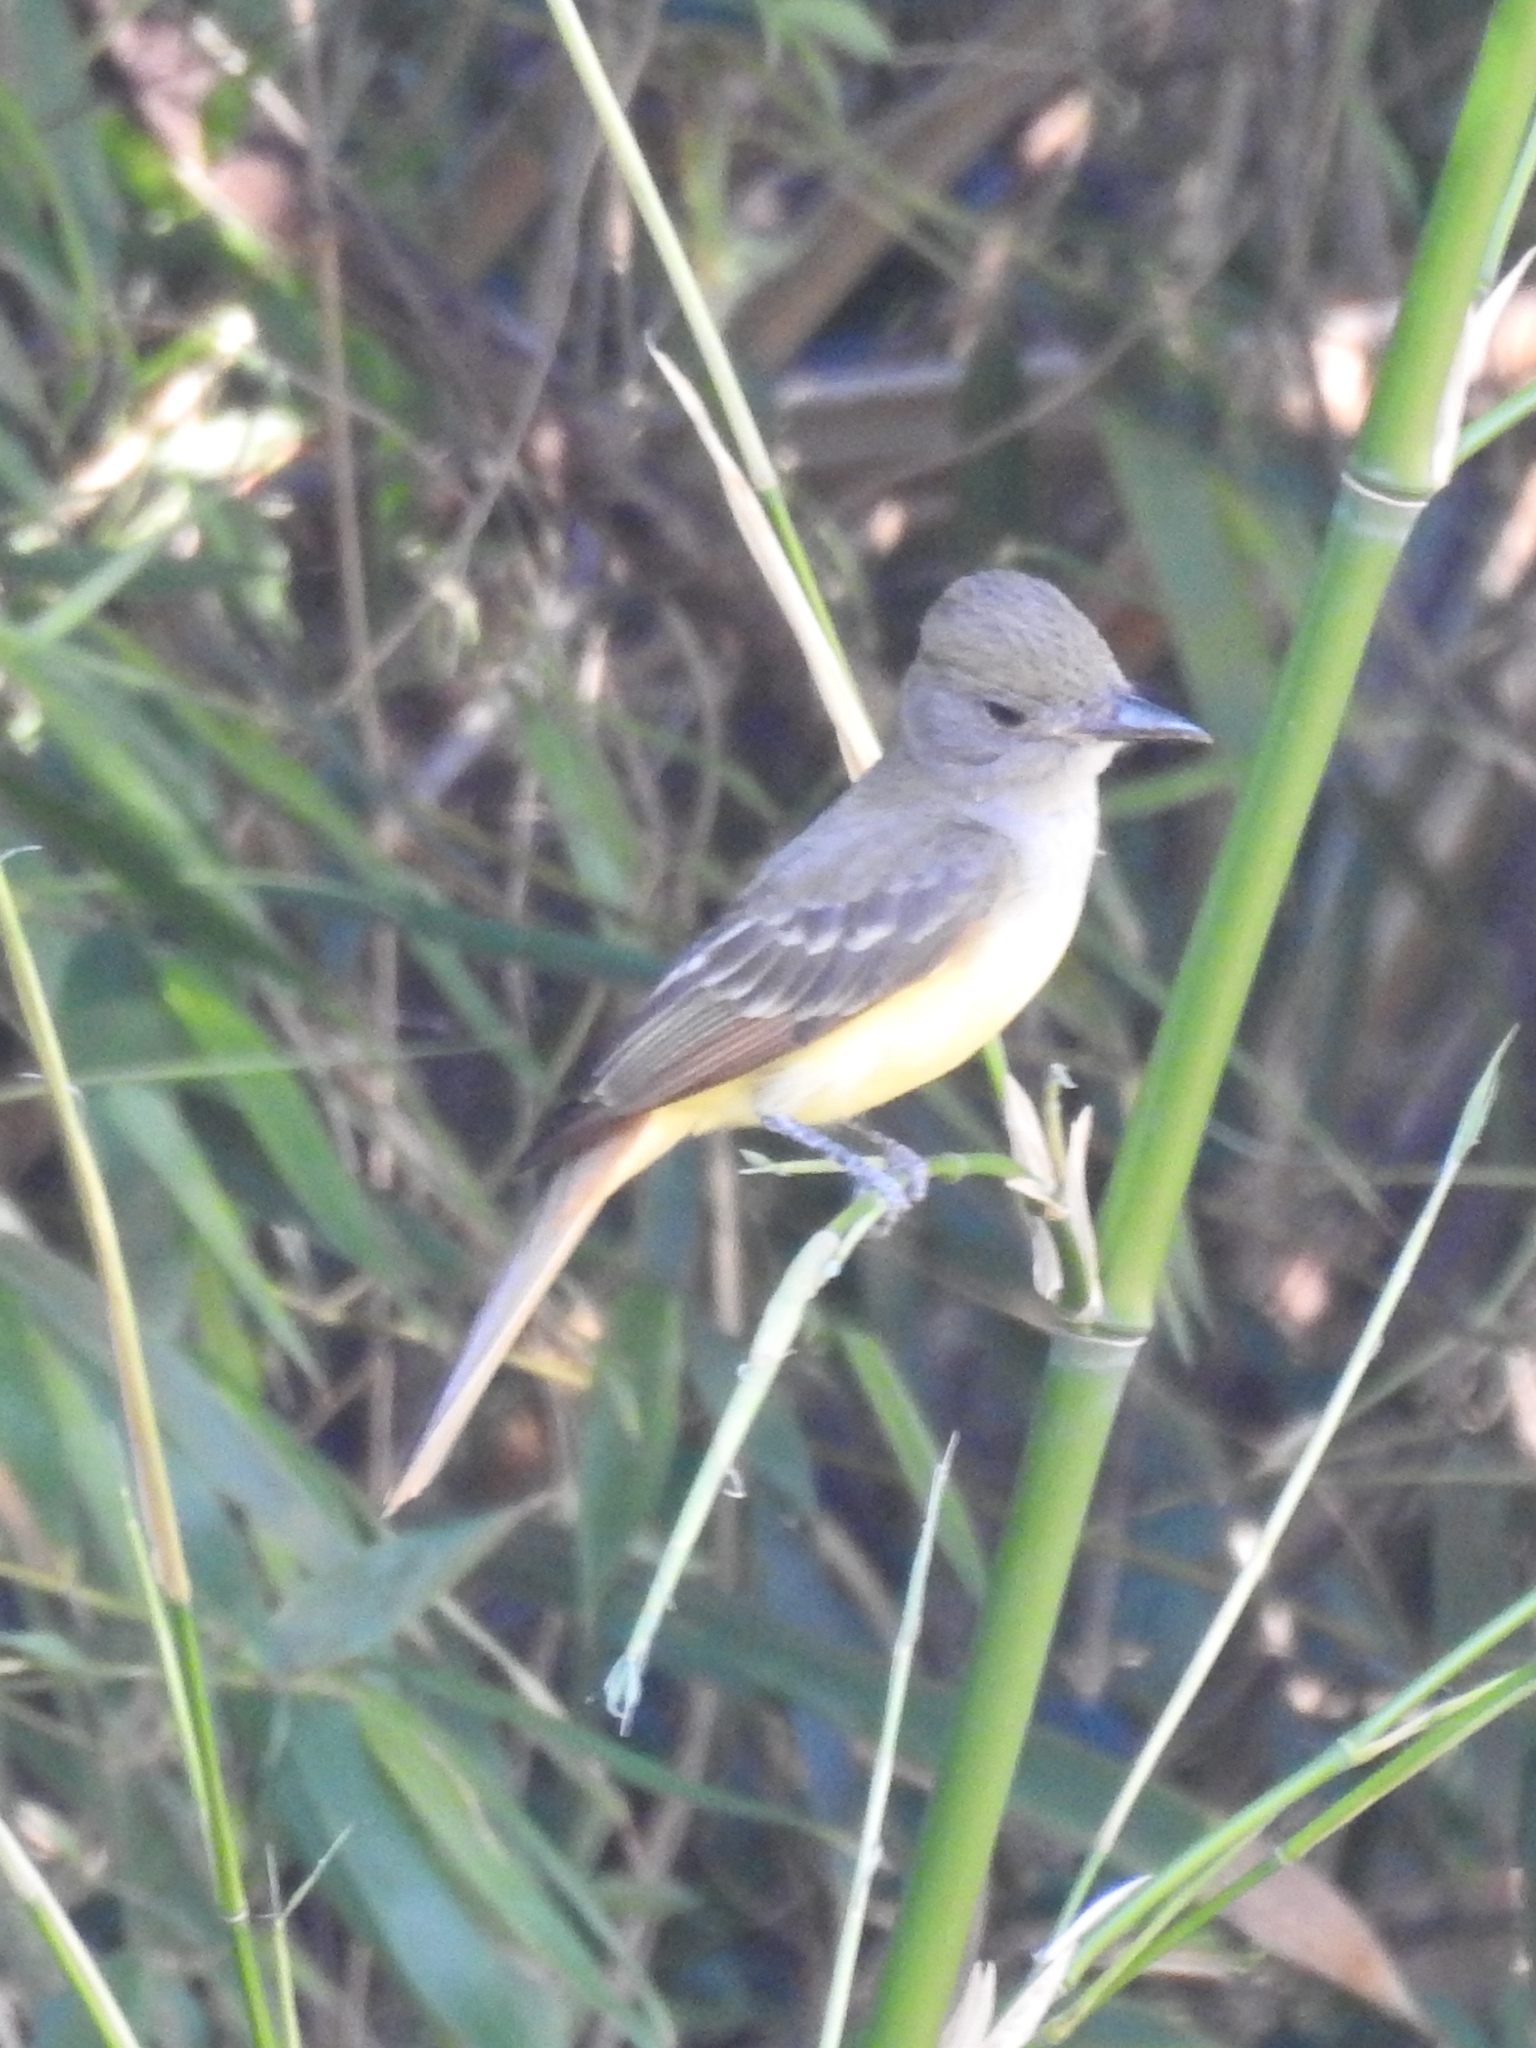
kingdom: Animalia
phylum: Chordata
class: Aves
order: Passeriformes
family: Tyrannidae
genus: Myiarchus
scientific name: Myiarchus crinitus
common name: Great crested flycatcher
